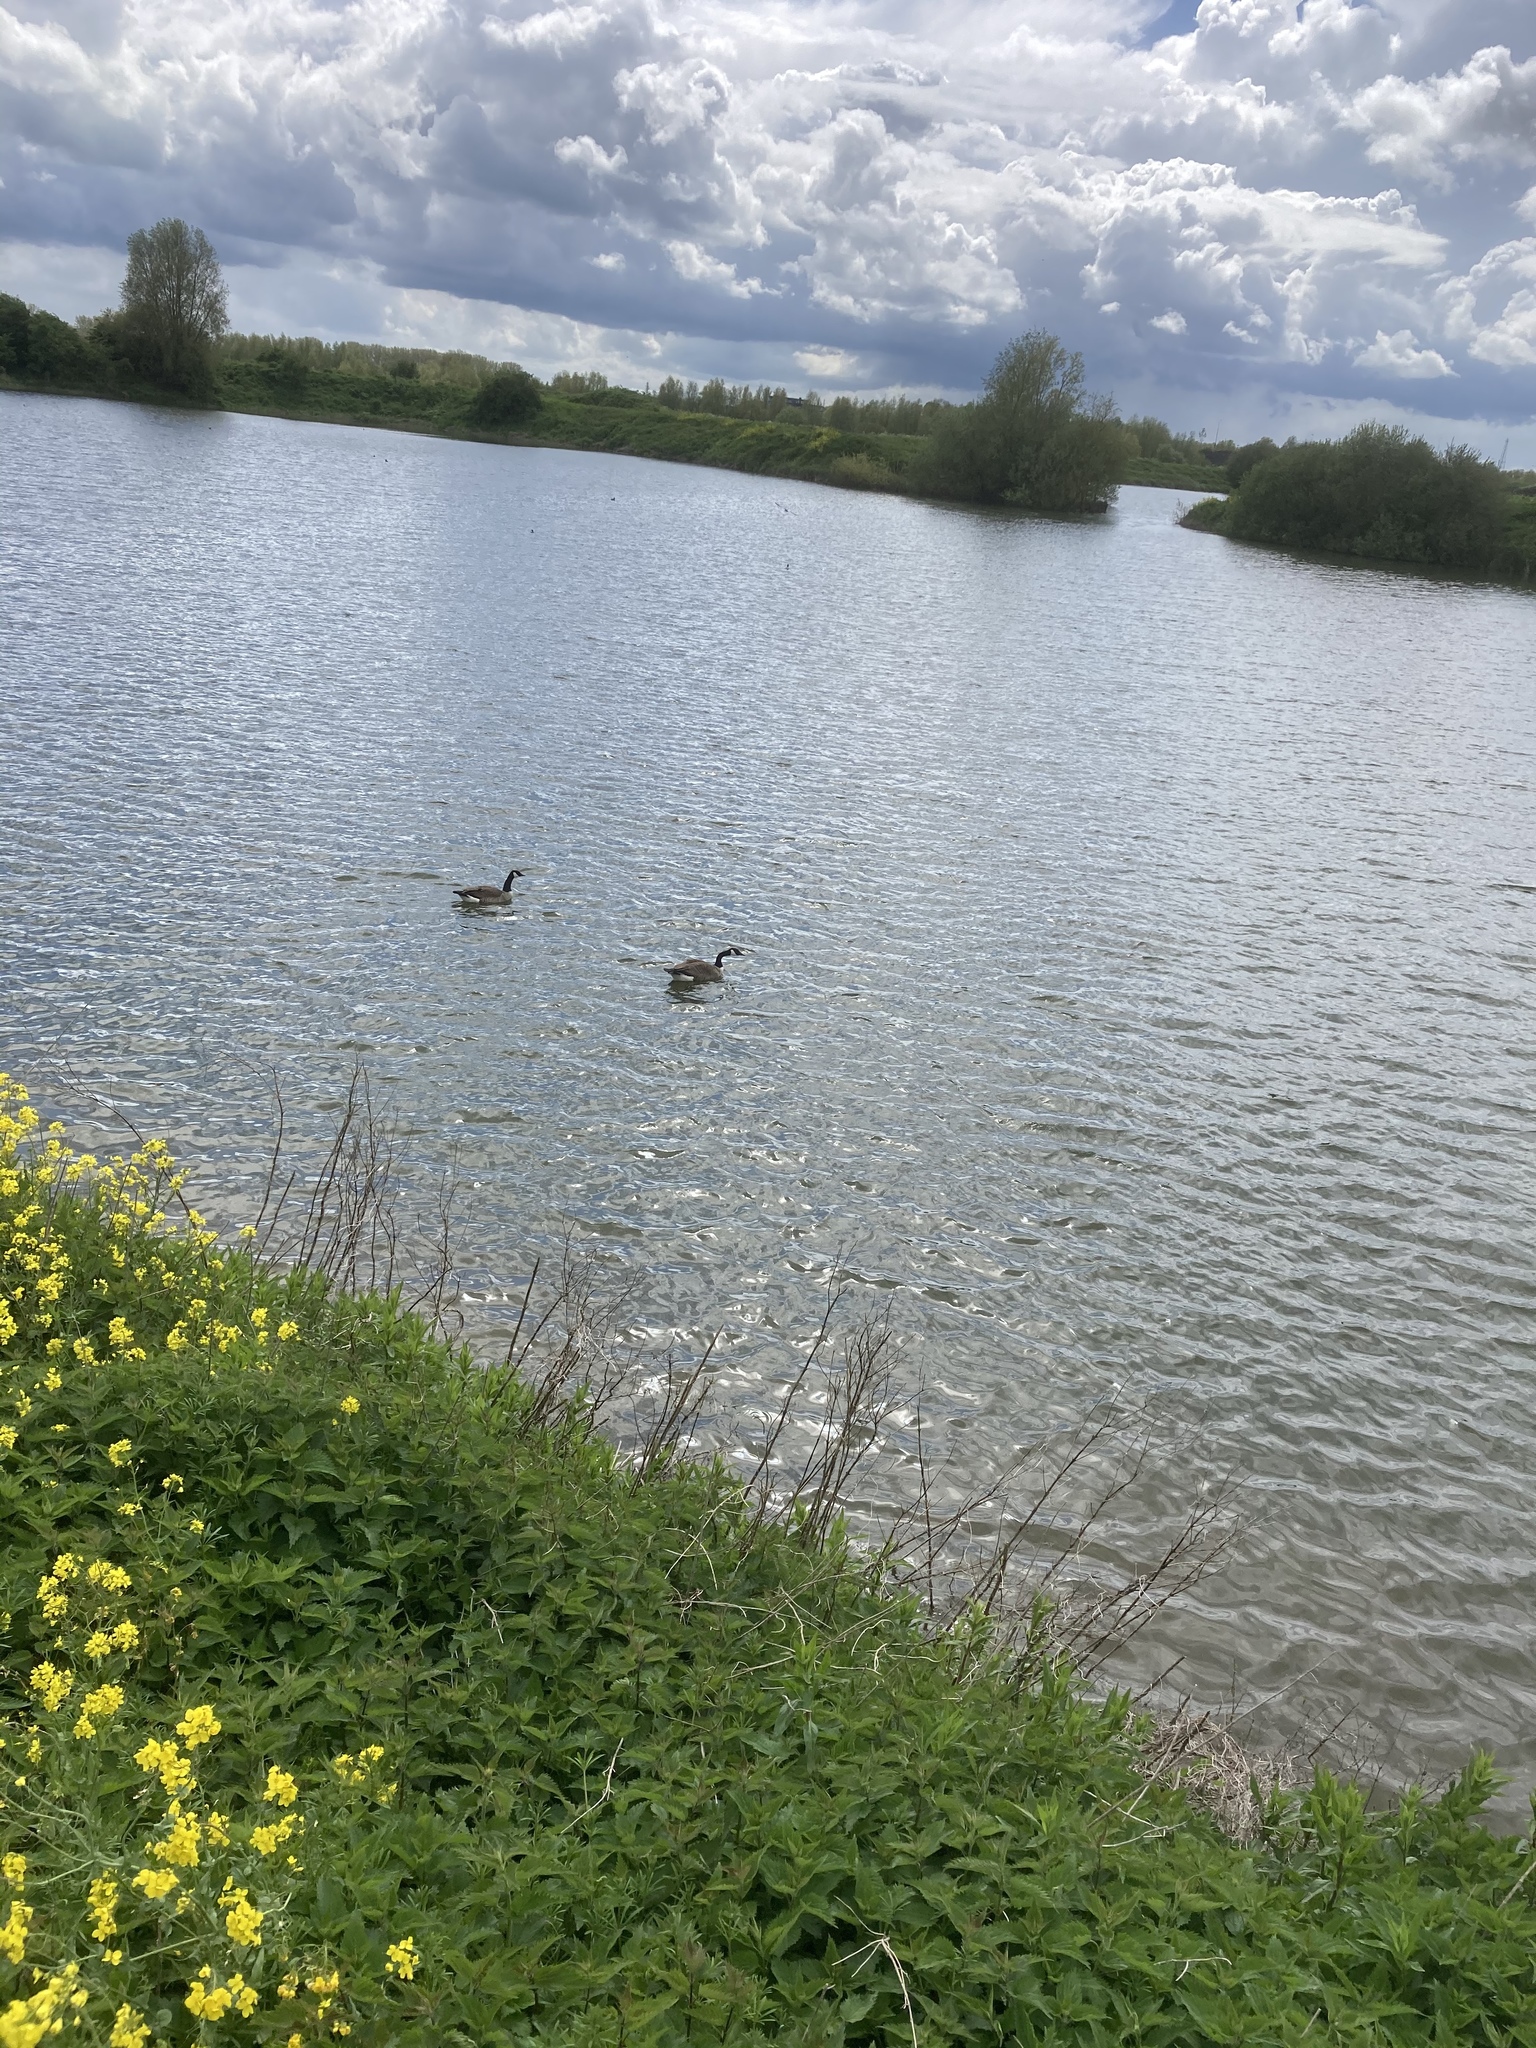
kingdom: Animalia
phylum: Chordata
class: Aves
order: Anseriformes
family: Anatidae
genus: Branta
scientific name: Branta canadensis
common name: Canada goose
